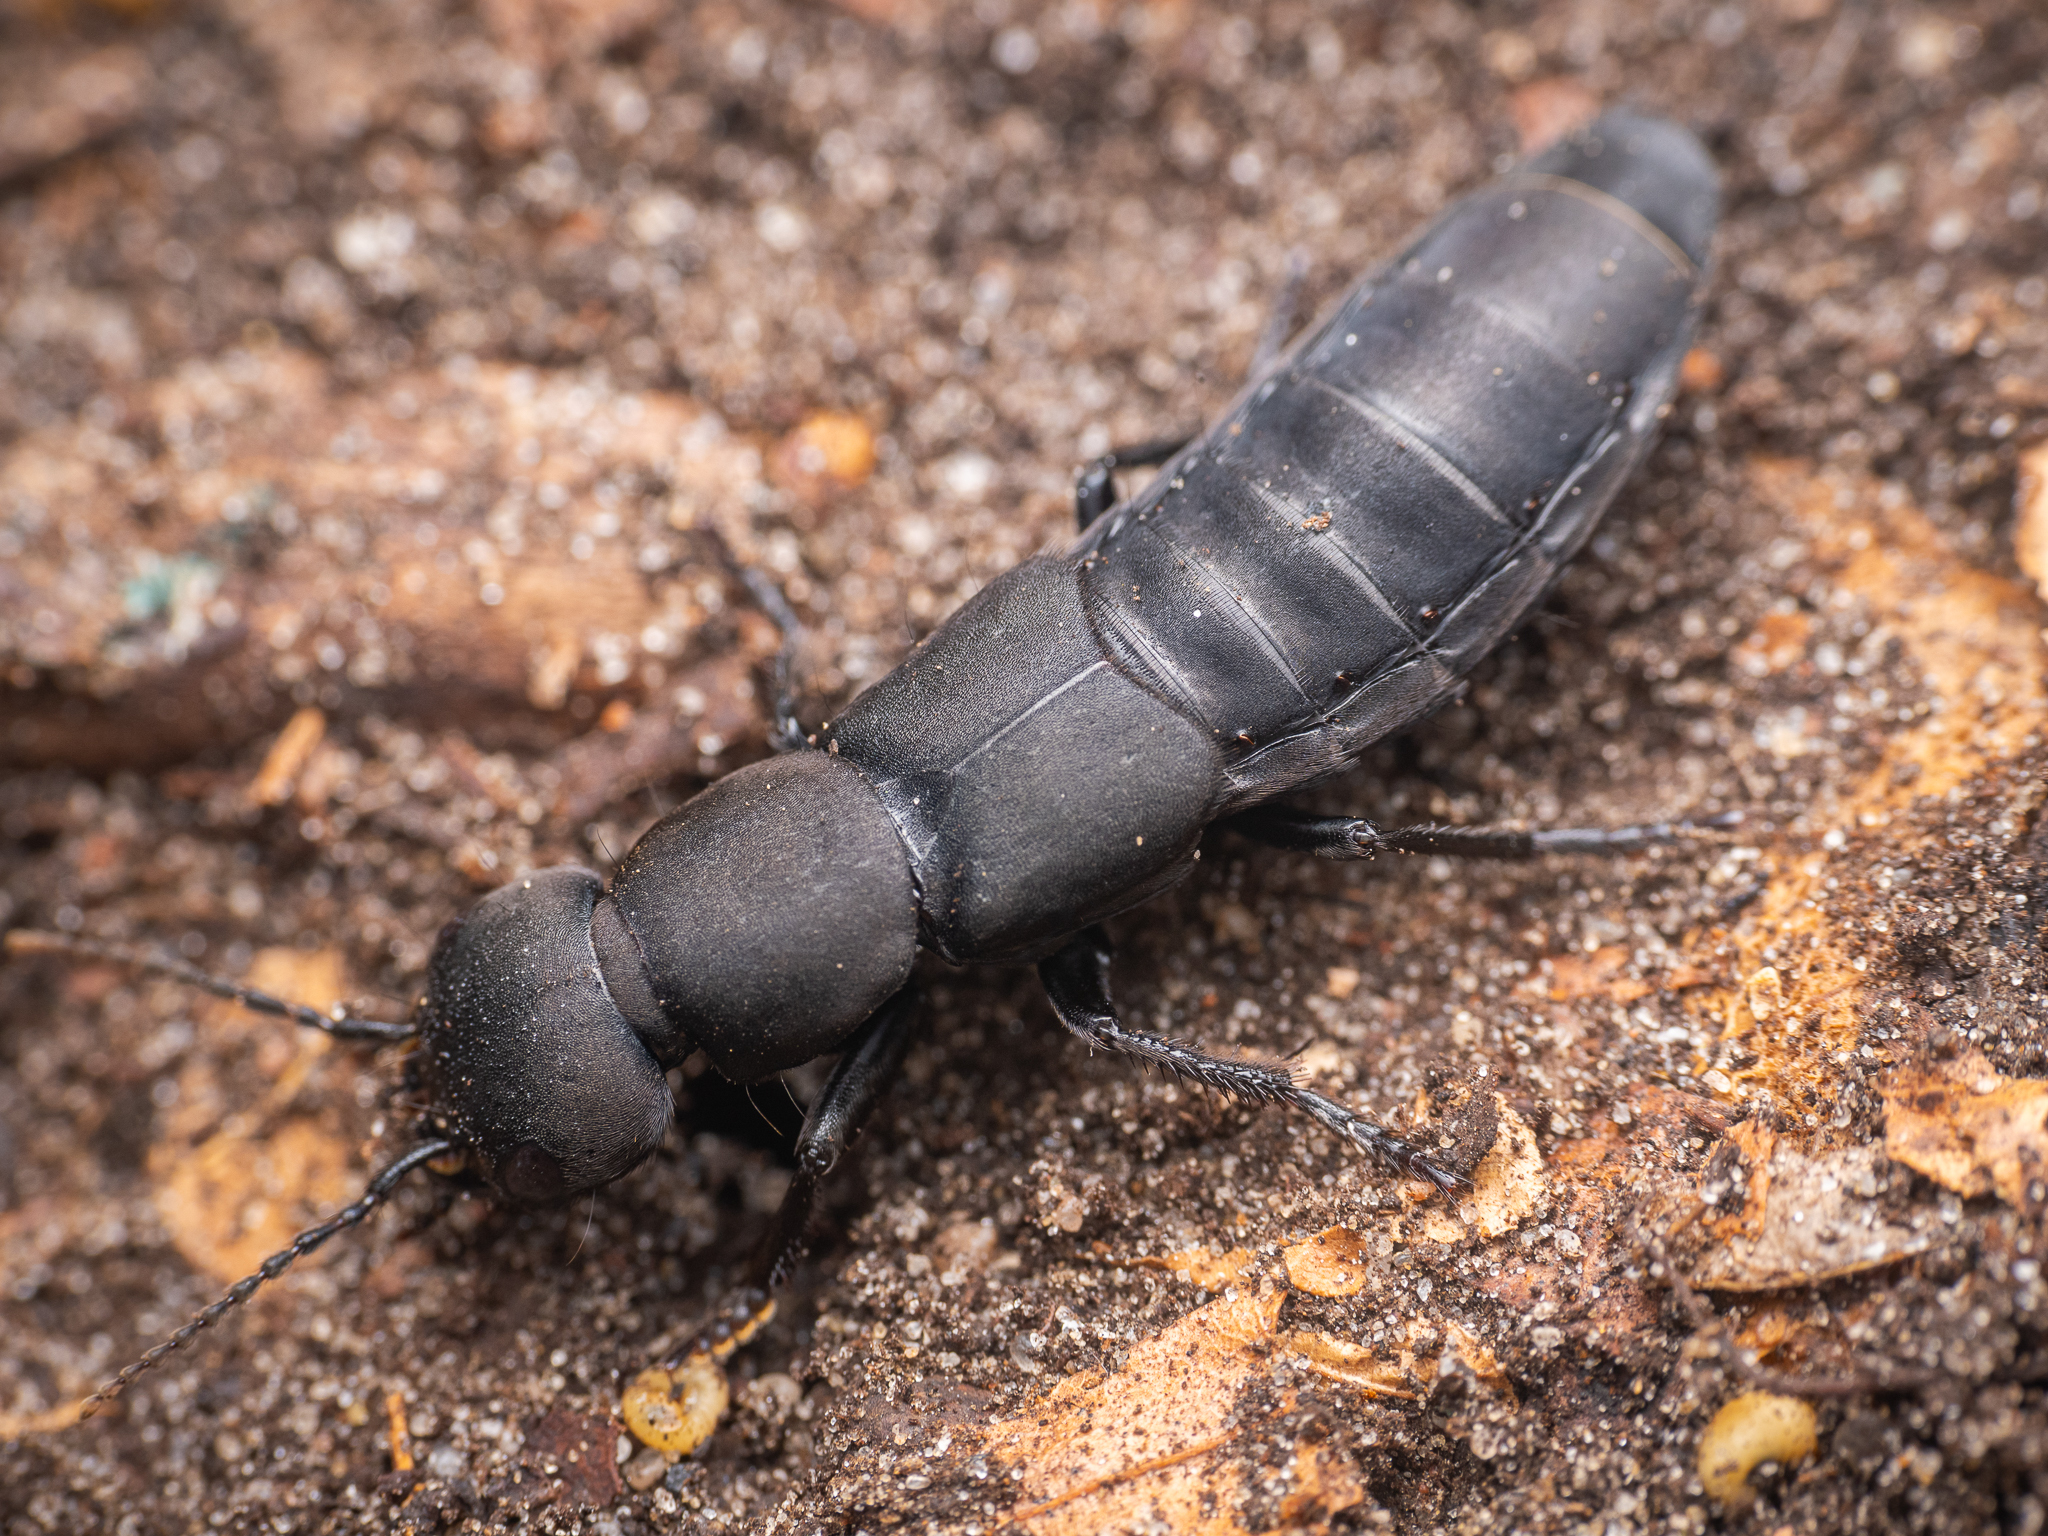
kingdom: Animalia
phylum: Arthropoda
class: Insecta
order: Coleoptera
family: Staphylinidae
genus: Ocypus
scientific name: Ocypus olens
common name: Devil's coach-horse
